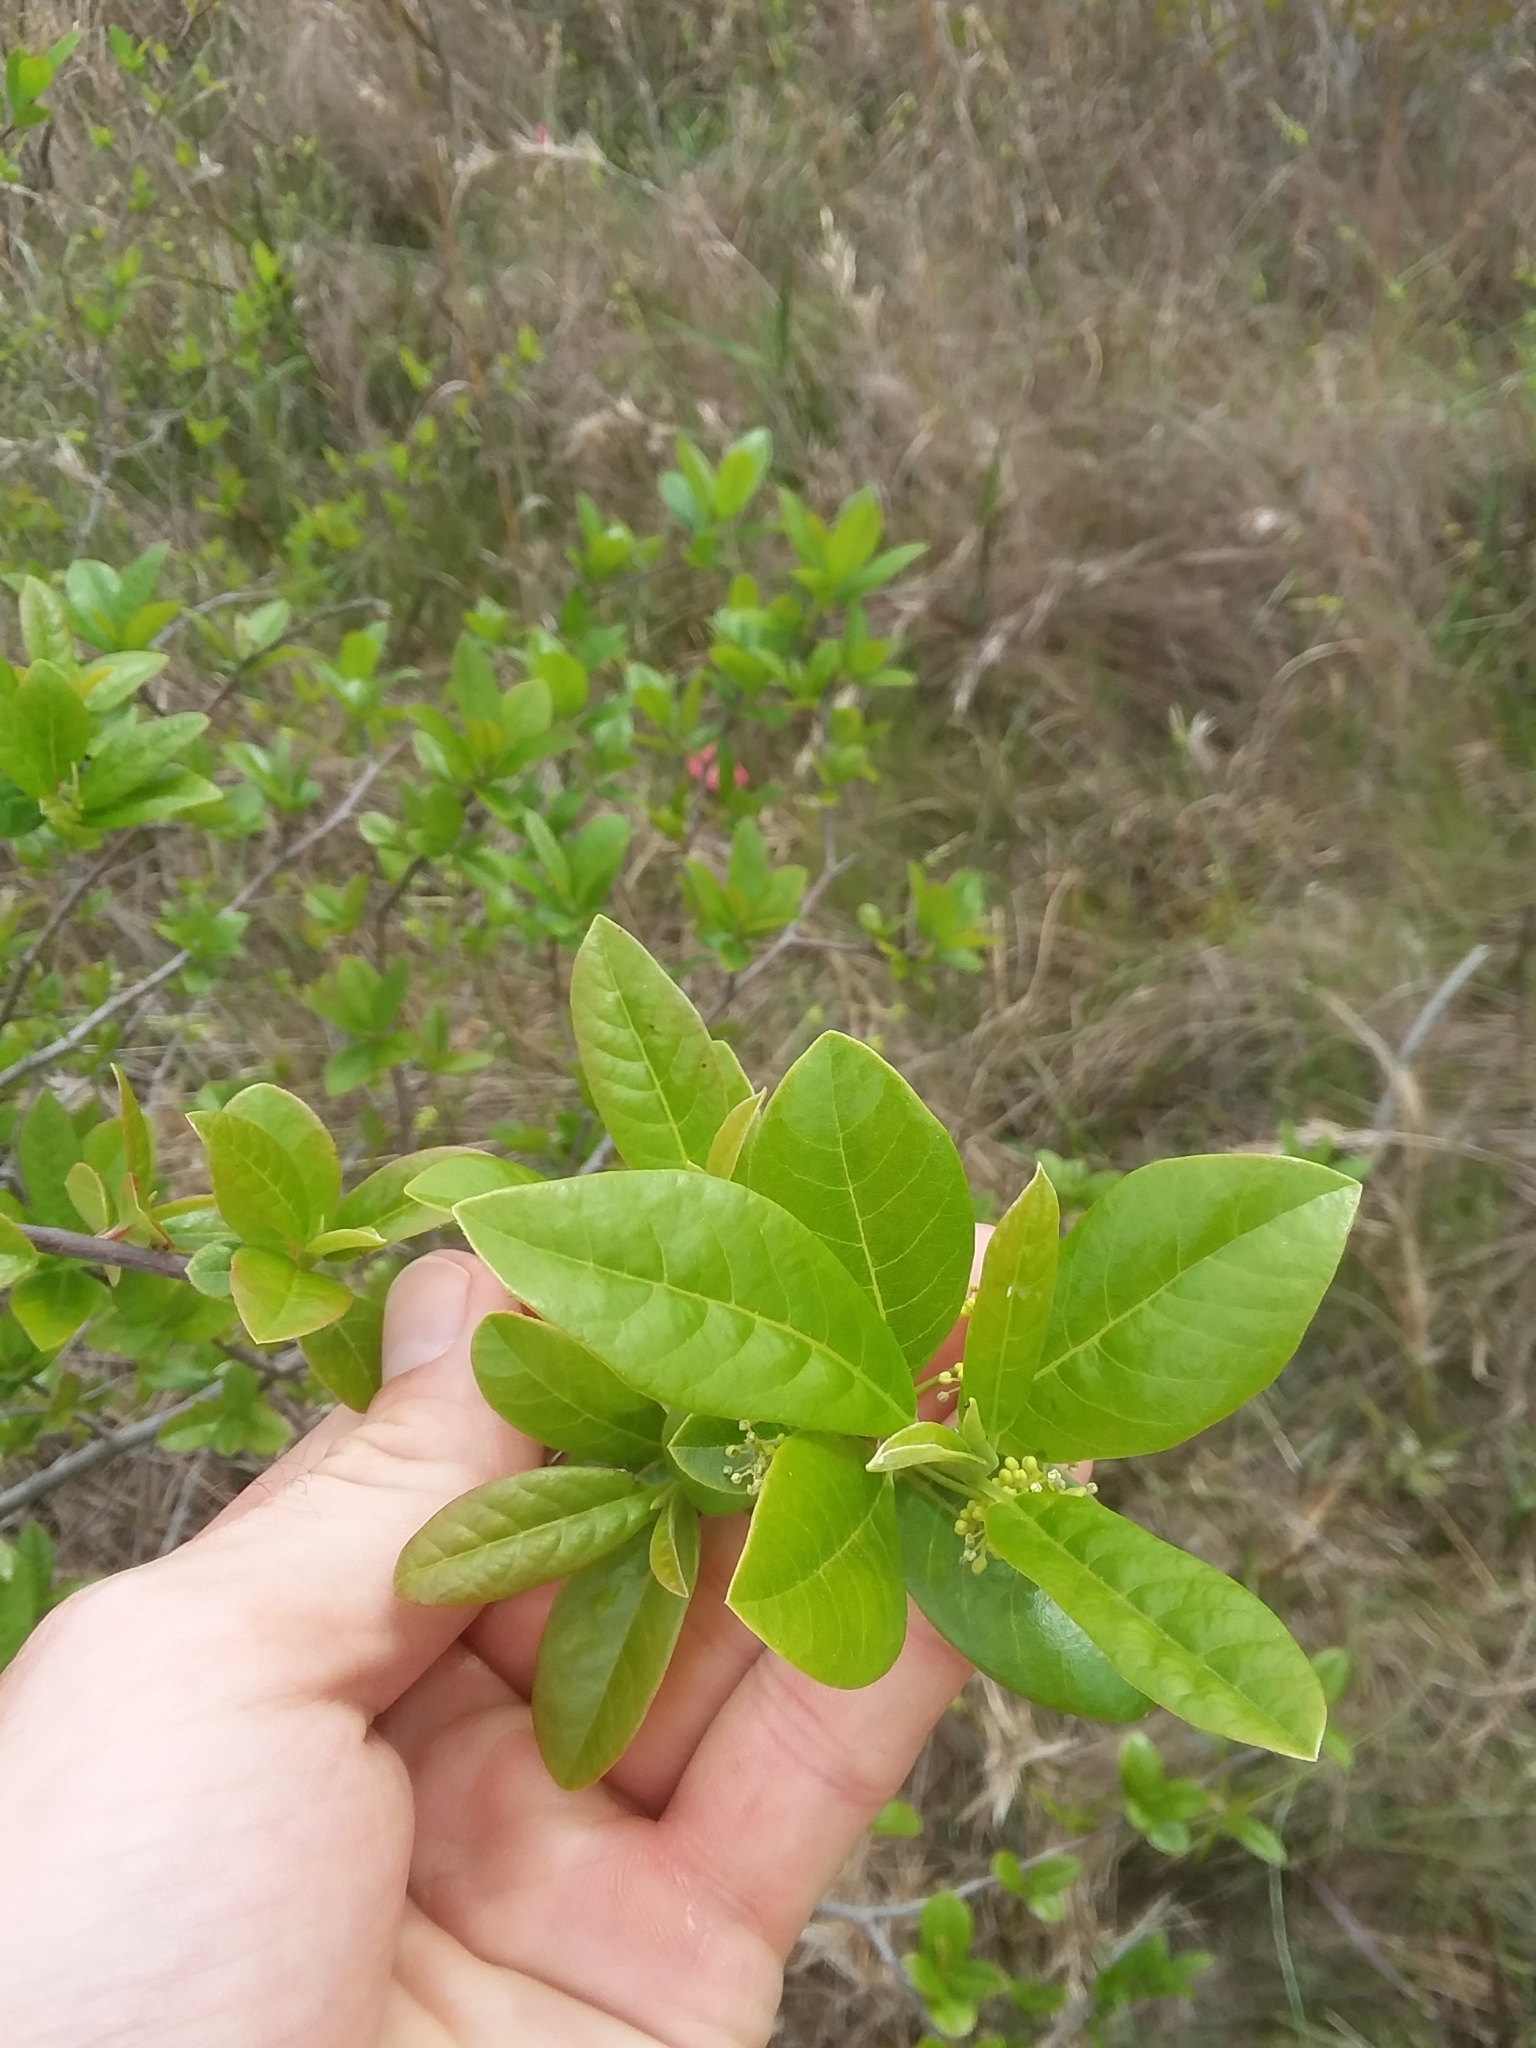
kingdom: Plantae
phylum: Tracheophyta
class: Magnoliopsida
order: Cornales
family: Nyssaceae
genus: Nyssa
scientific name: Nyssa biflora
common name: Swamp blackgum
